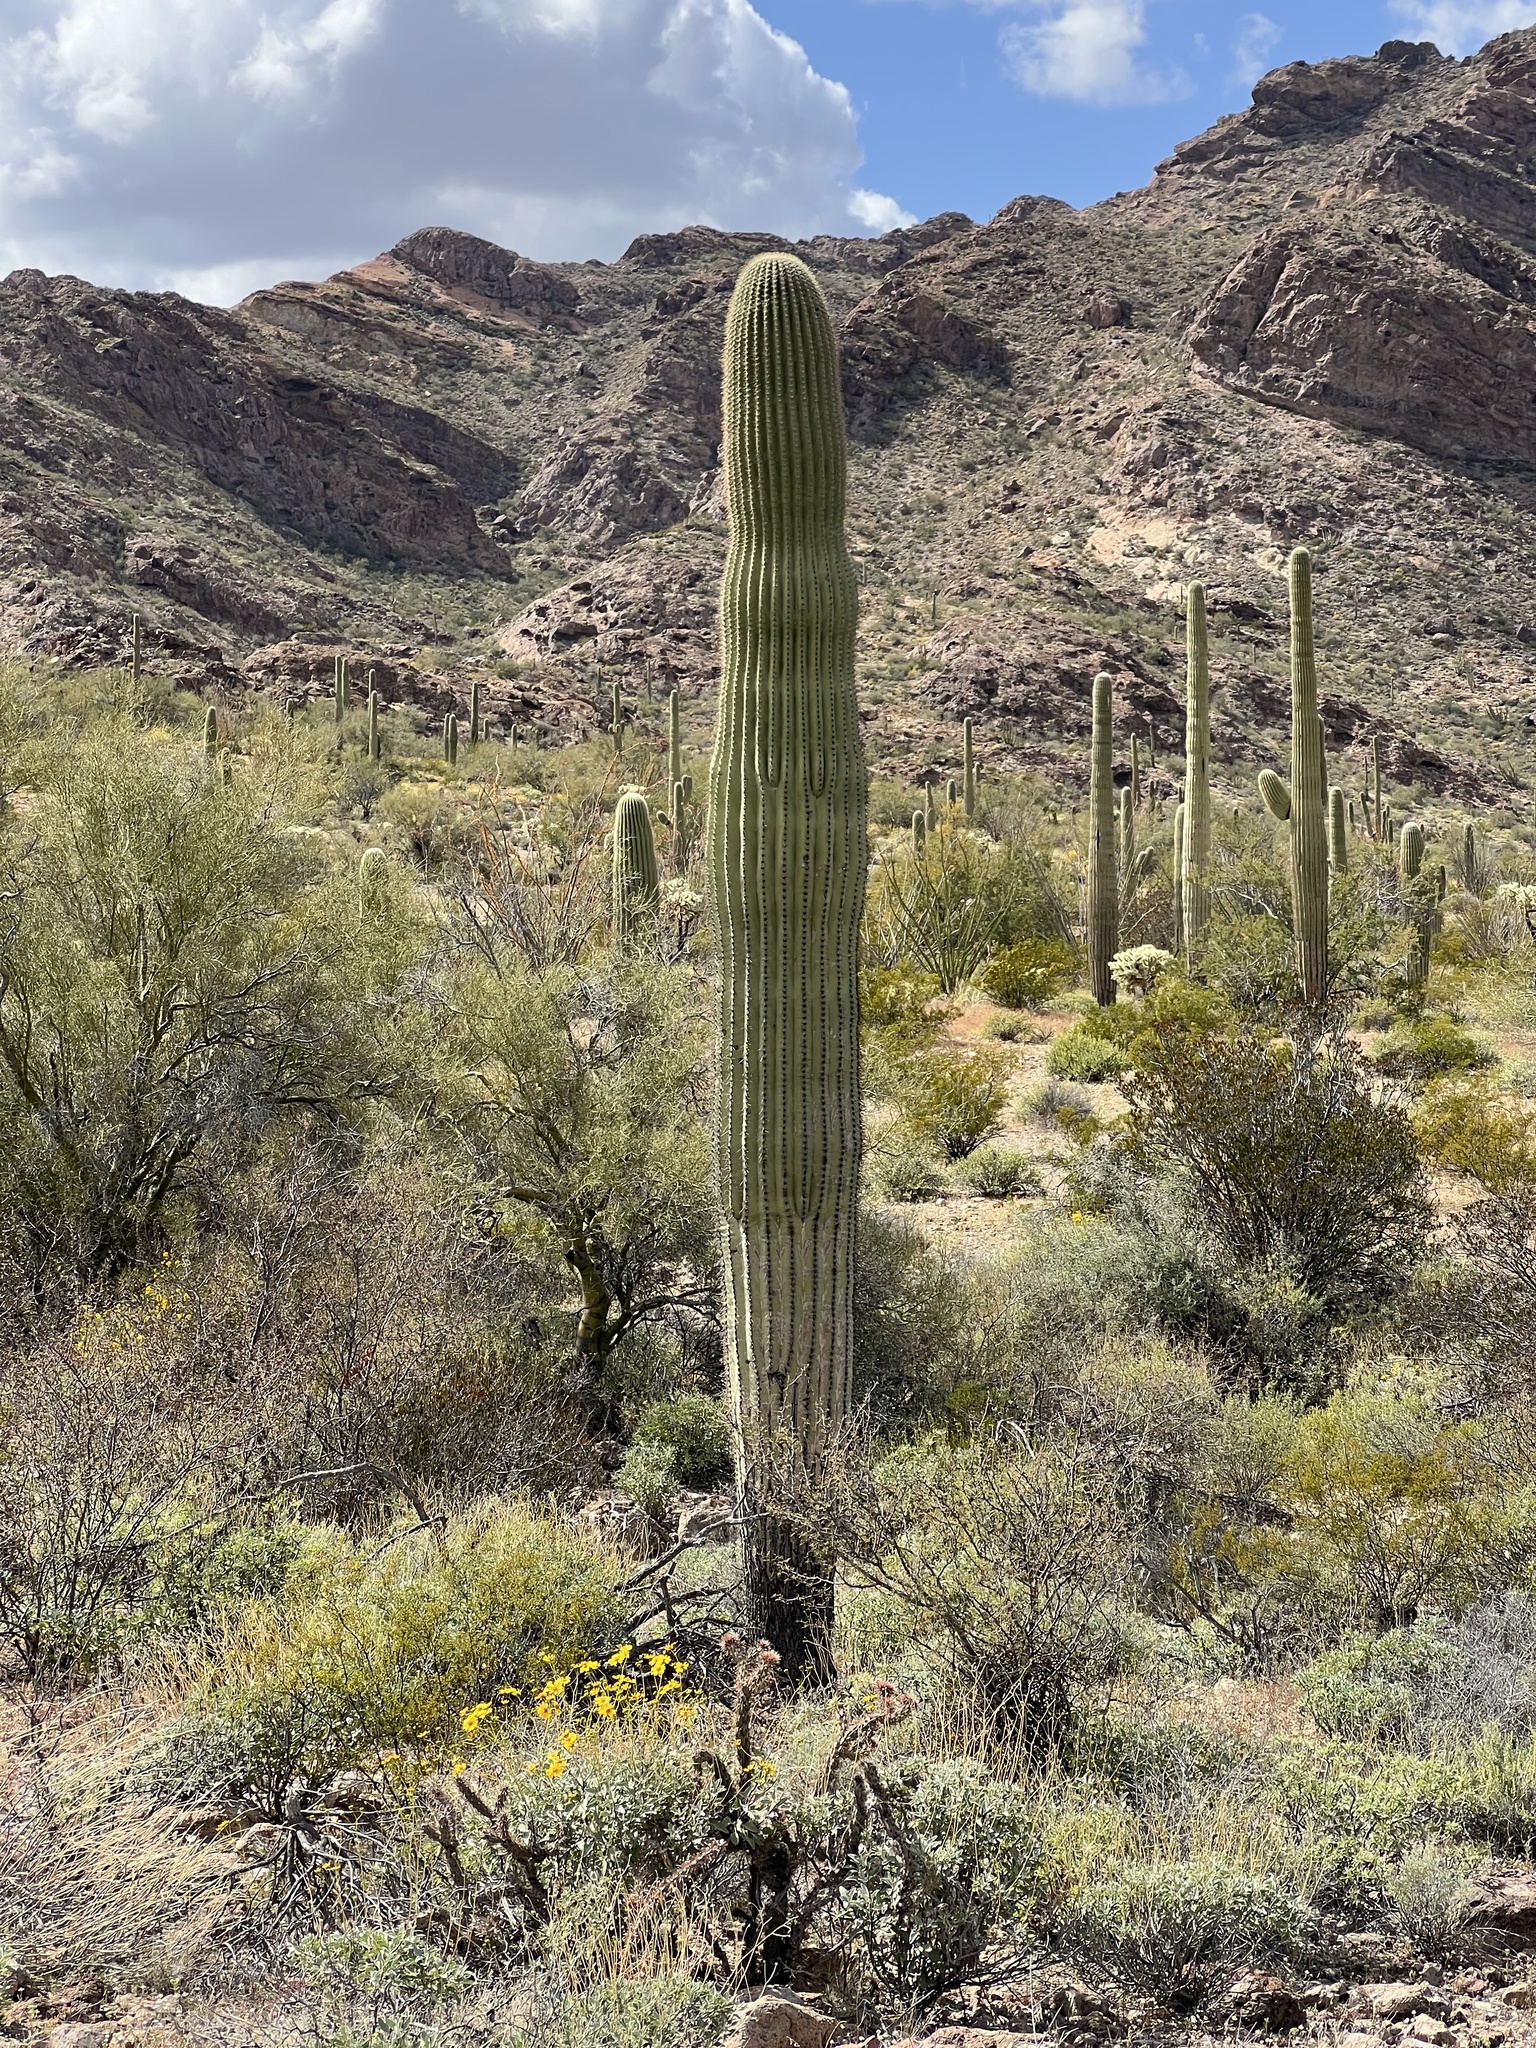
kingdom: Plantae
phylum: Tracheophyta
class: Magnoliopsida
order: Caryophyllales
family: Cactaceae
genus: Carnegiea
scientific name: Carnegiea gigantea
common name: Saguaro
